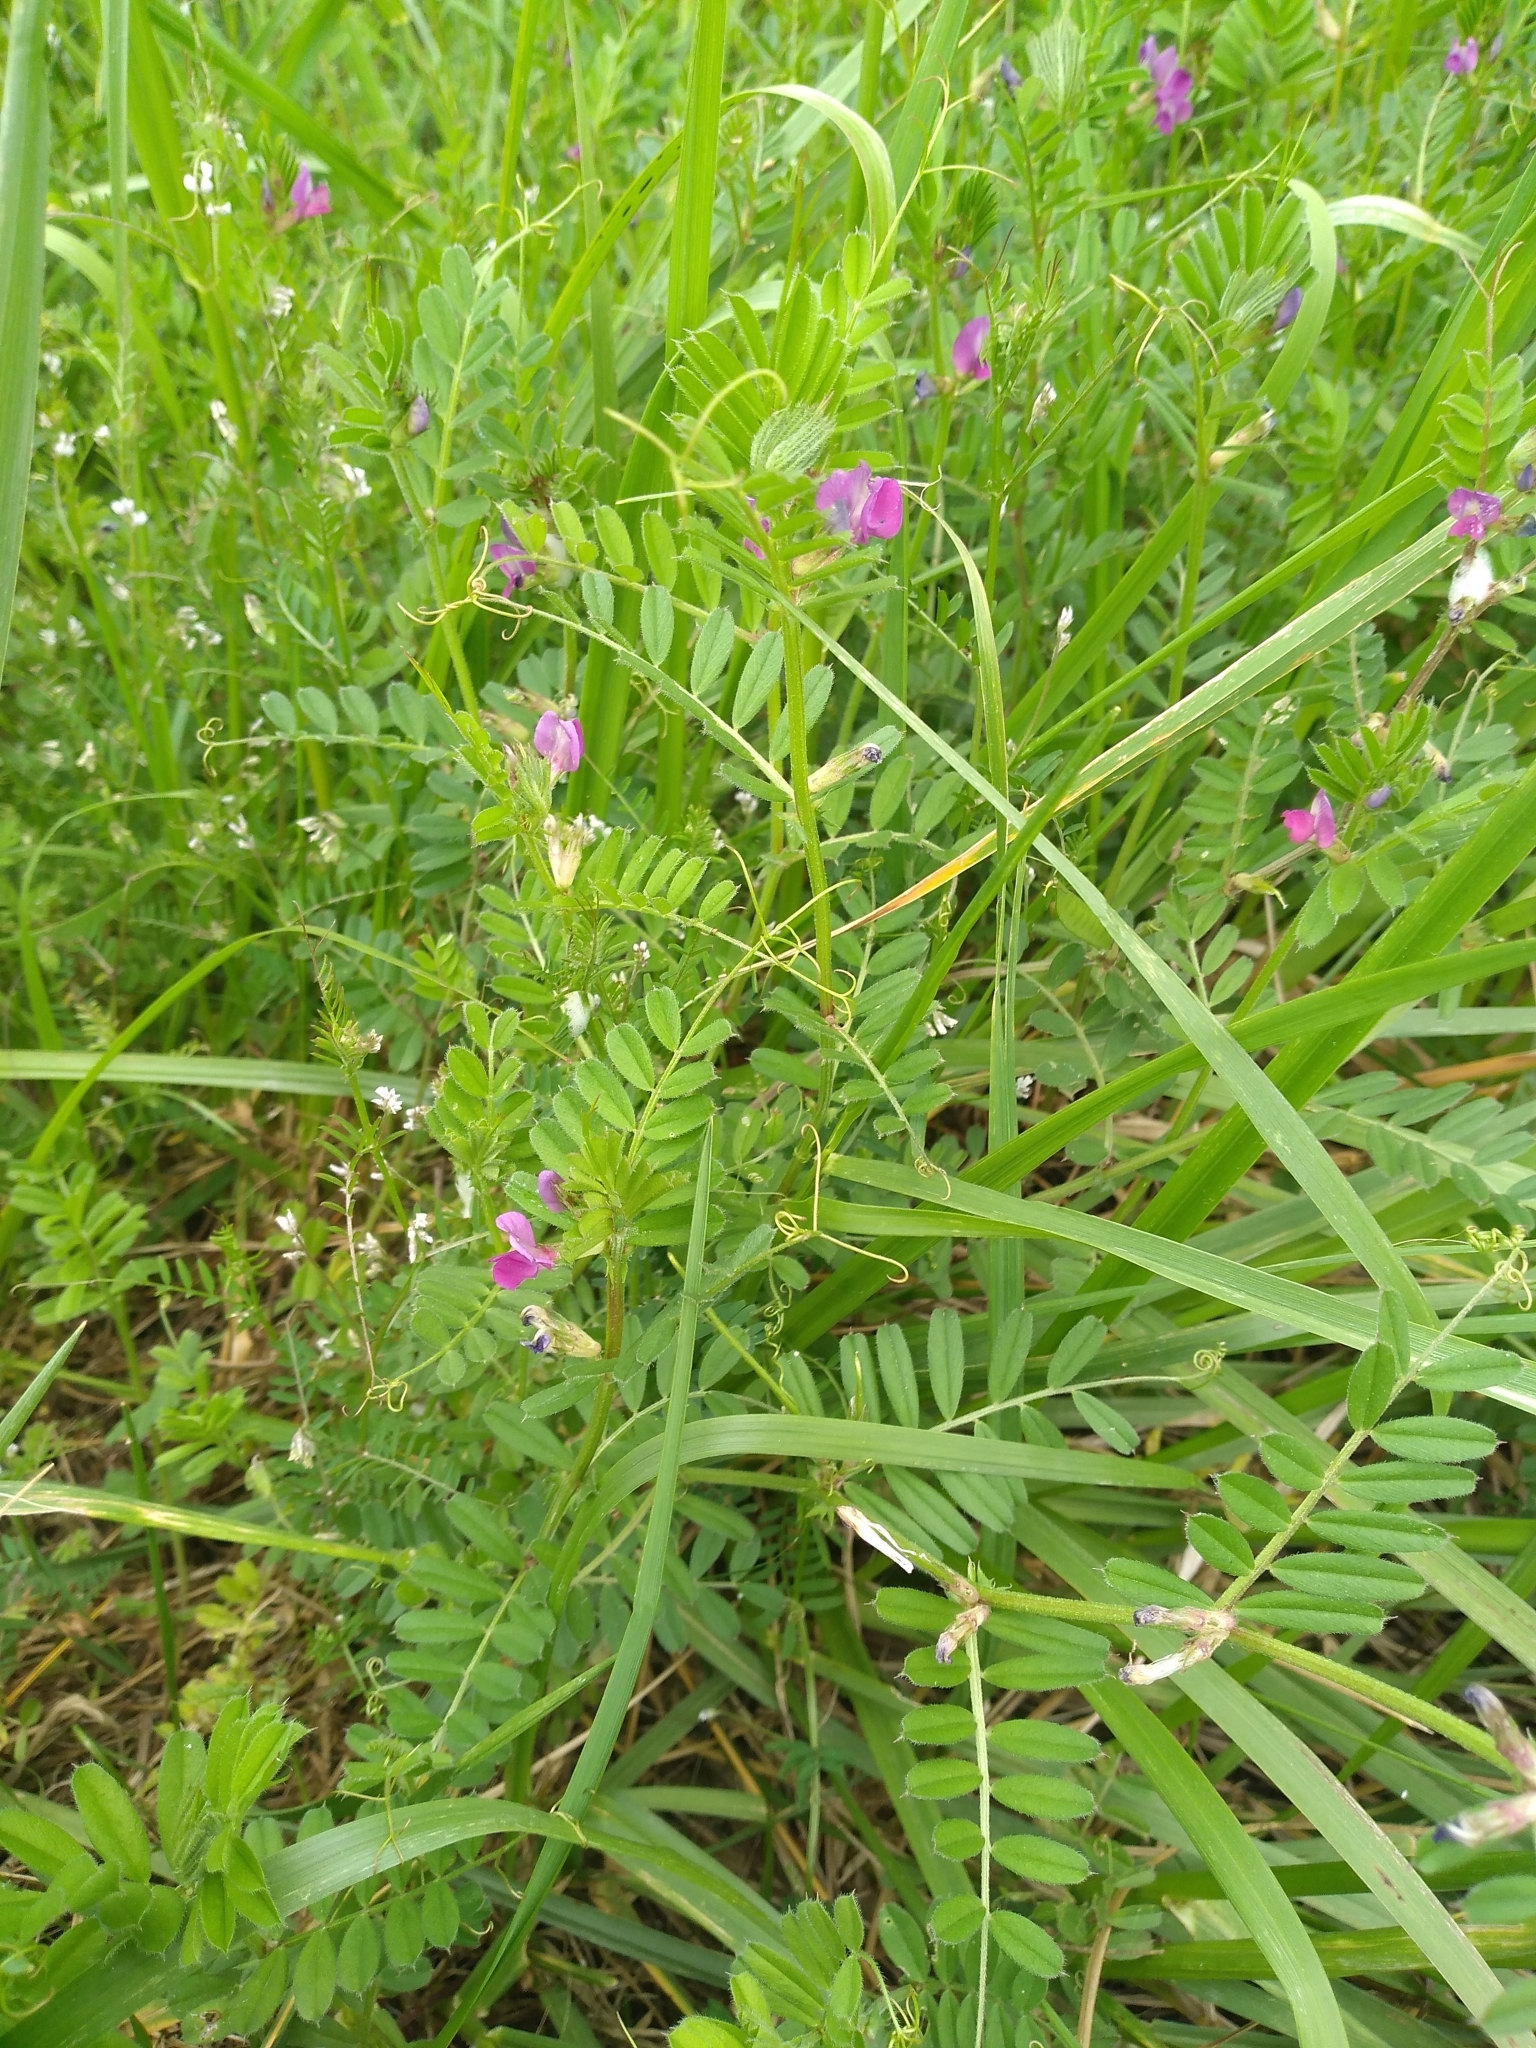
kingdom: Plantae
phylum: Tracheophyta
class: Magnoliopsida
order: Fabales
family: Fabaceae
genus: Vicia
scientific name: Vicia sativa
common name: Garden vetch
